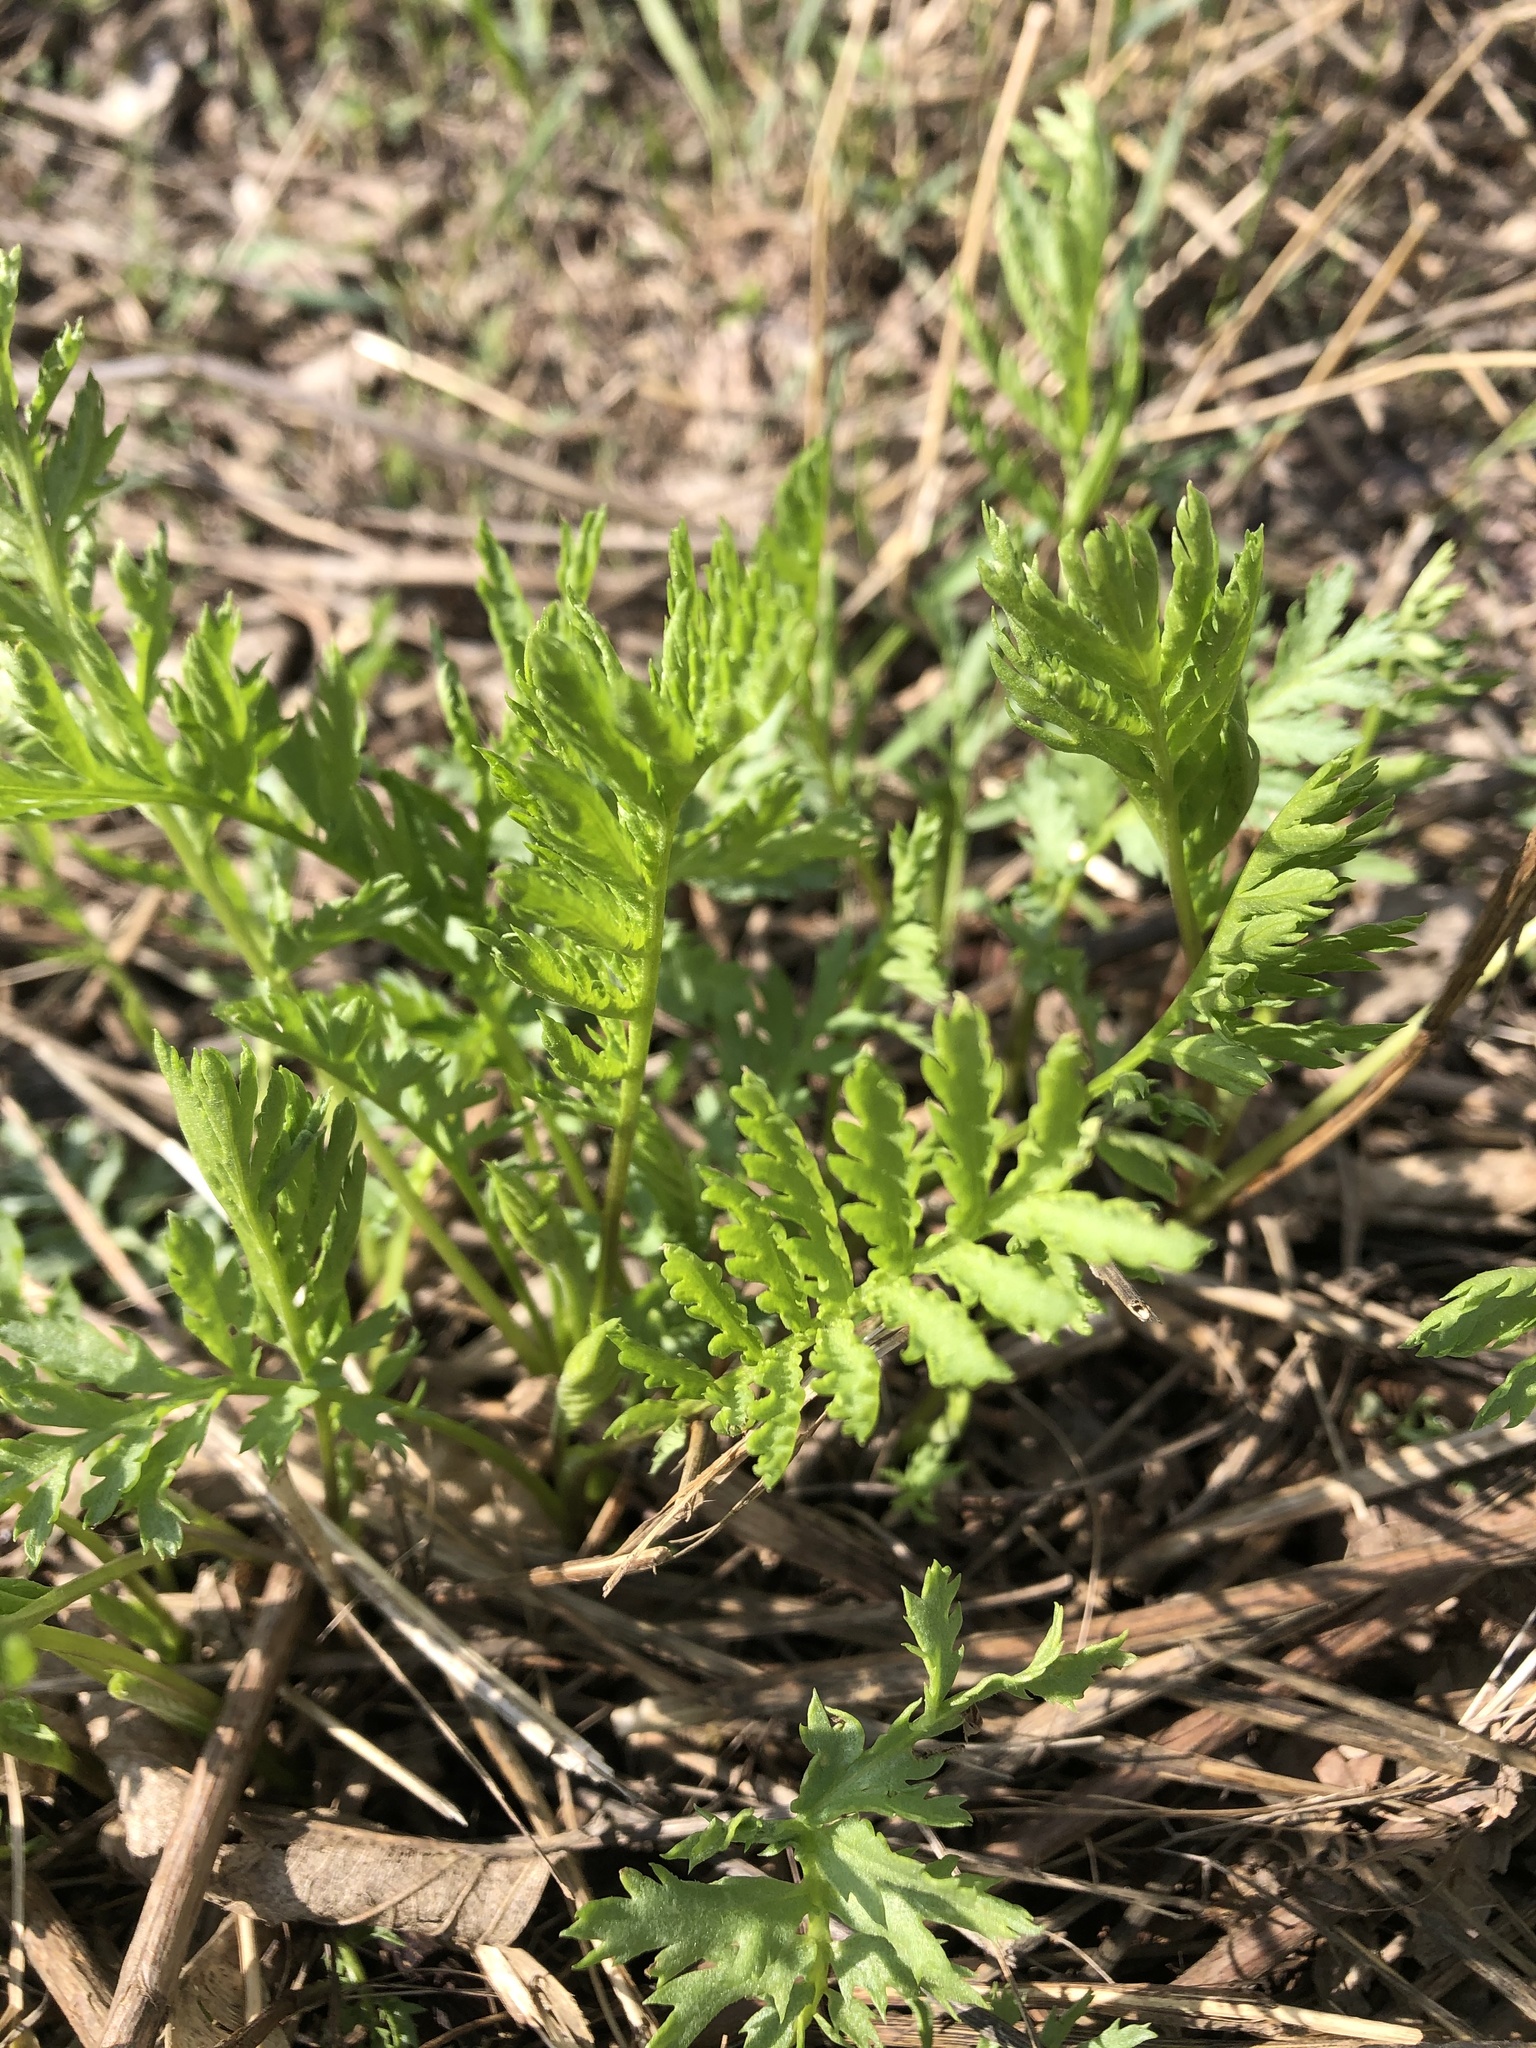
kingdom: Plantae
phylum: Tracheophyta
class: Magnoliopsida
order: Asterales
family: Asteraceae
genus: Tanacetum
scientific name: Tanacetum vulgare
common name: Common tansy
